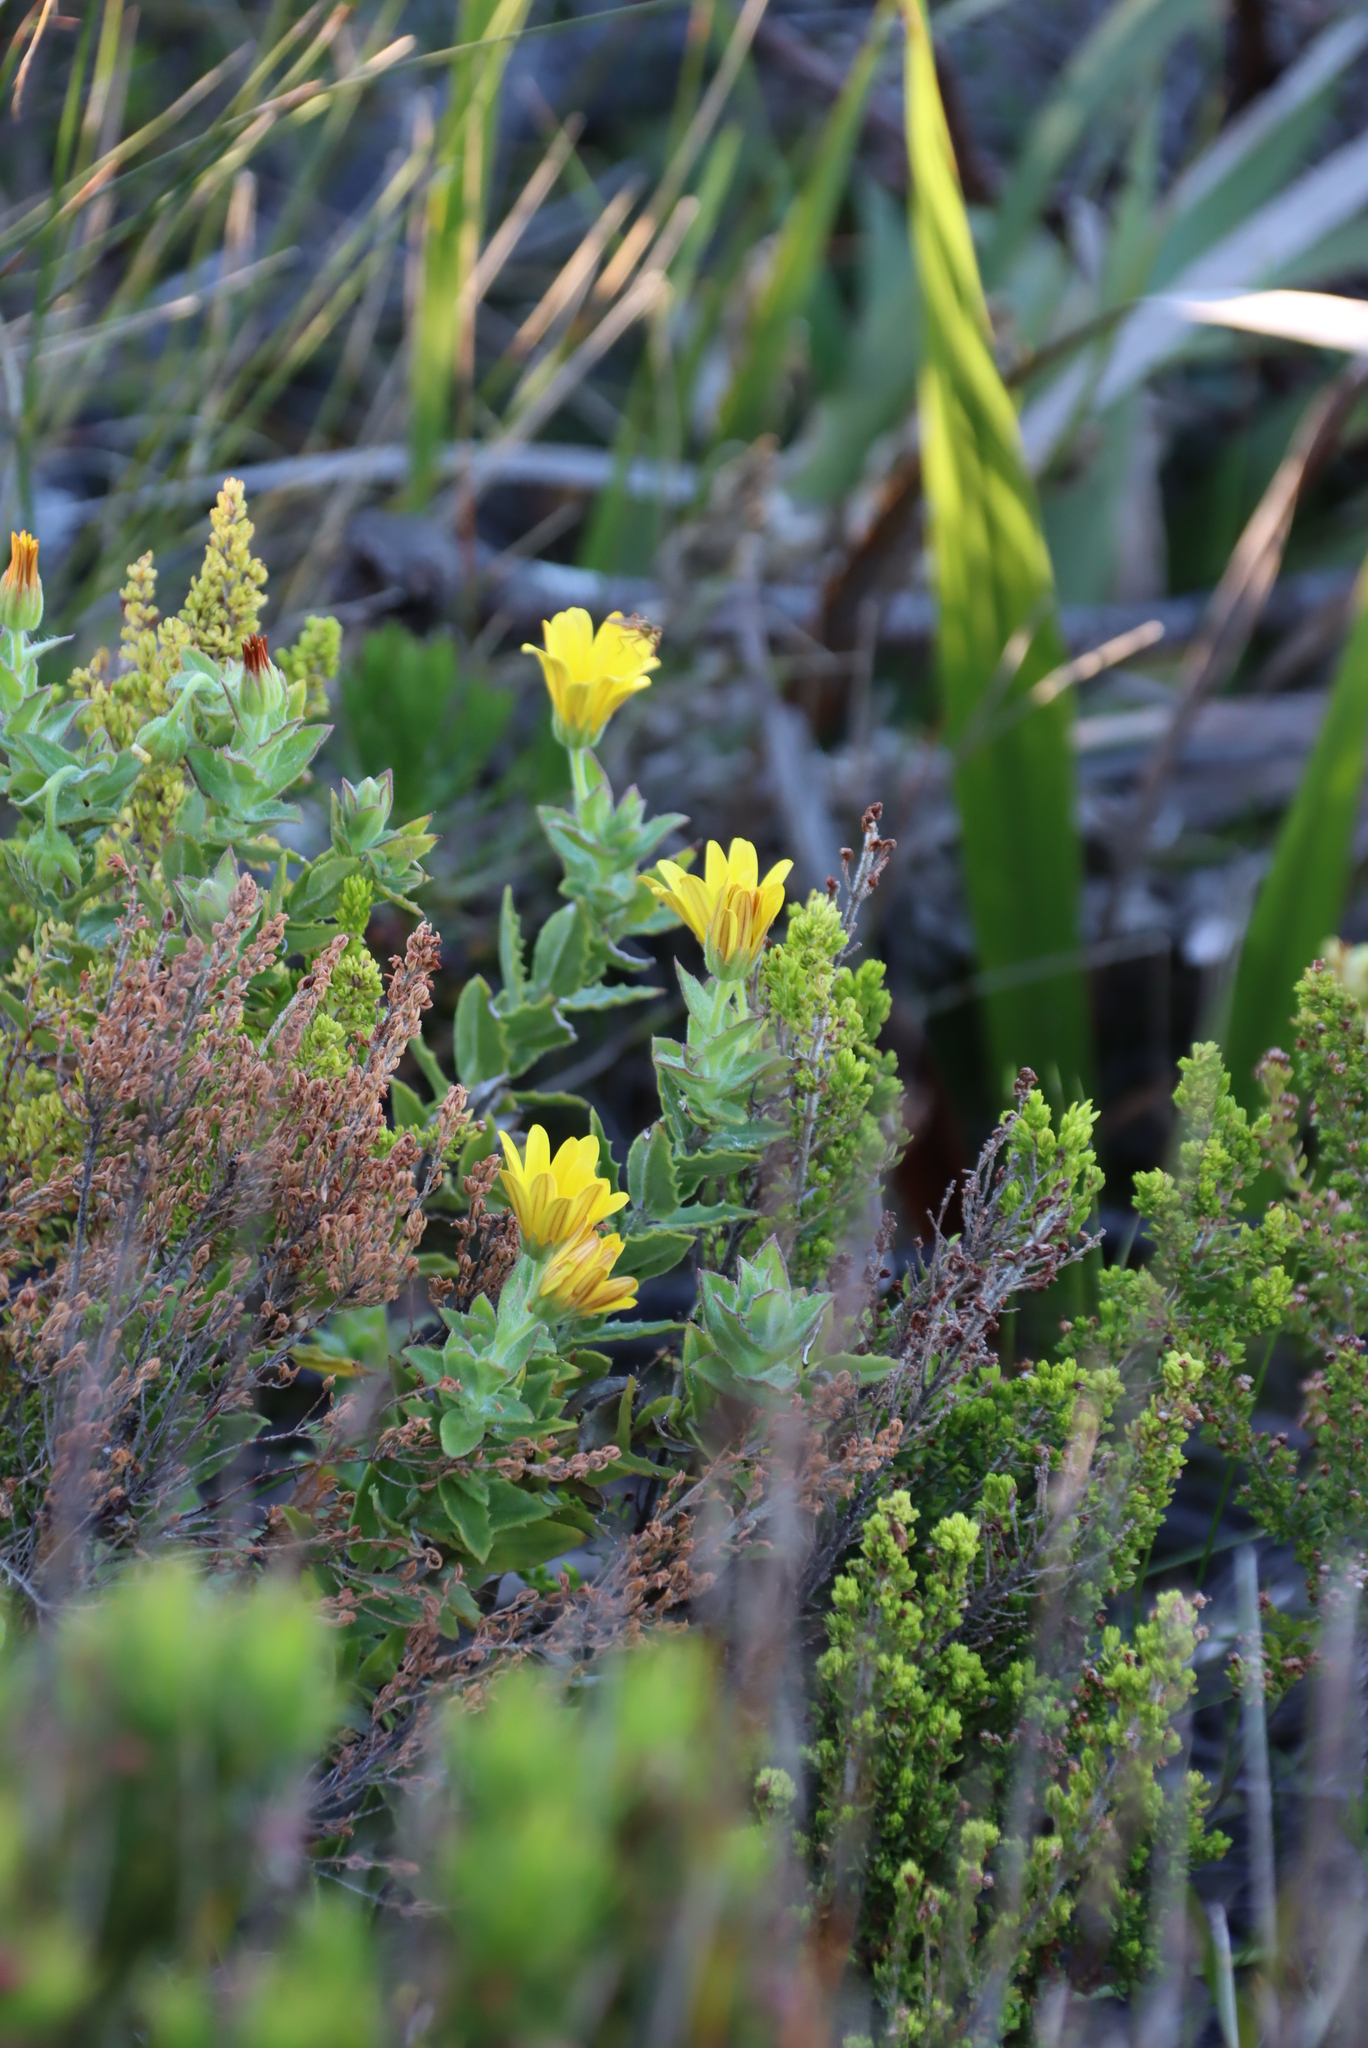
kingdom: Plantae
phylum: Tracheophyta
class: Magnoliopsida
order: Asterales
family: Asteraceae
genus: Osteospermum
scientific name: Osteospermum ilicifolium
